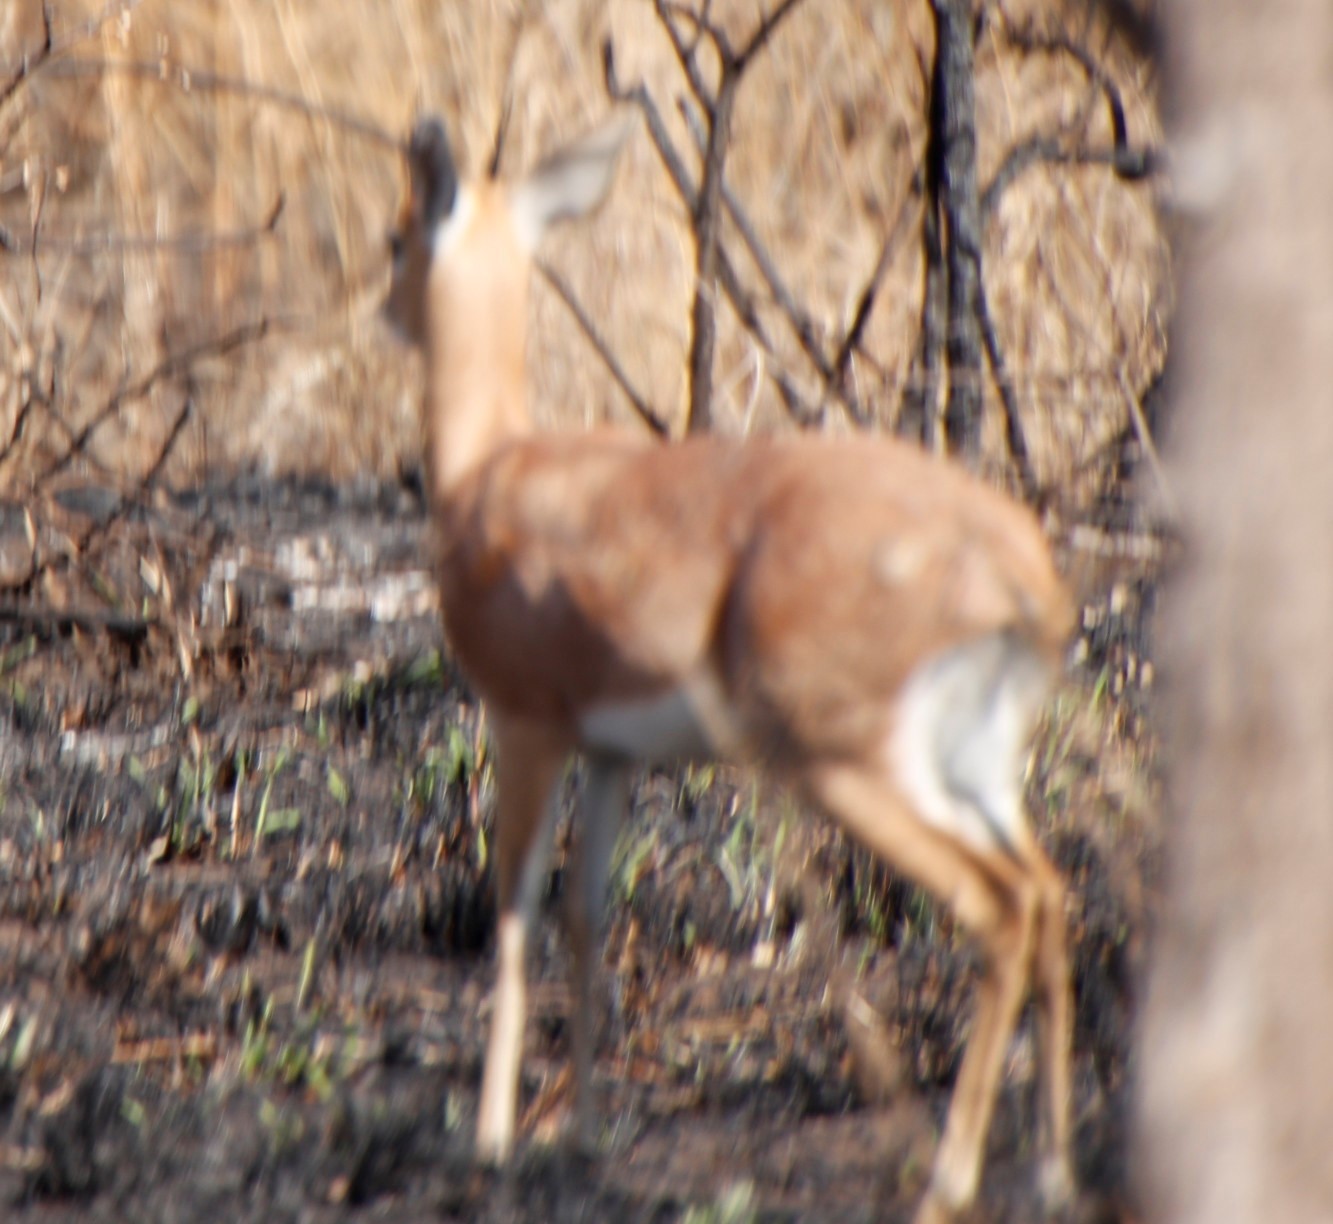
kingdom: Animalia
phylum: Chordata
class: Mammalia
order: Artiodactyla
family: Bovidae
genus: Raphicerus
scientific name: Raphicerus campestris
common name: Steenbok
